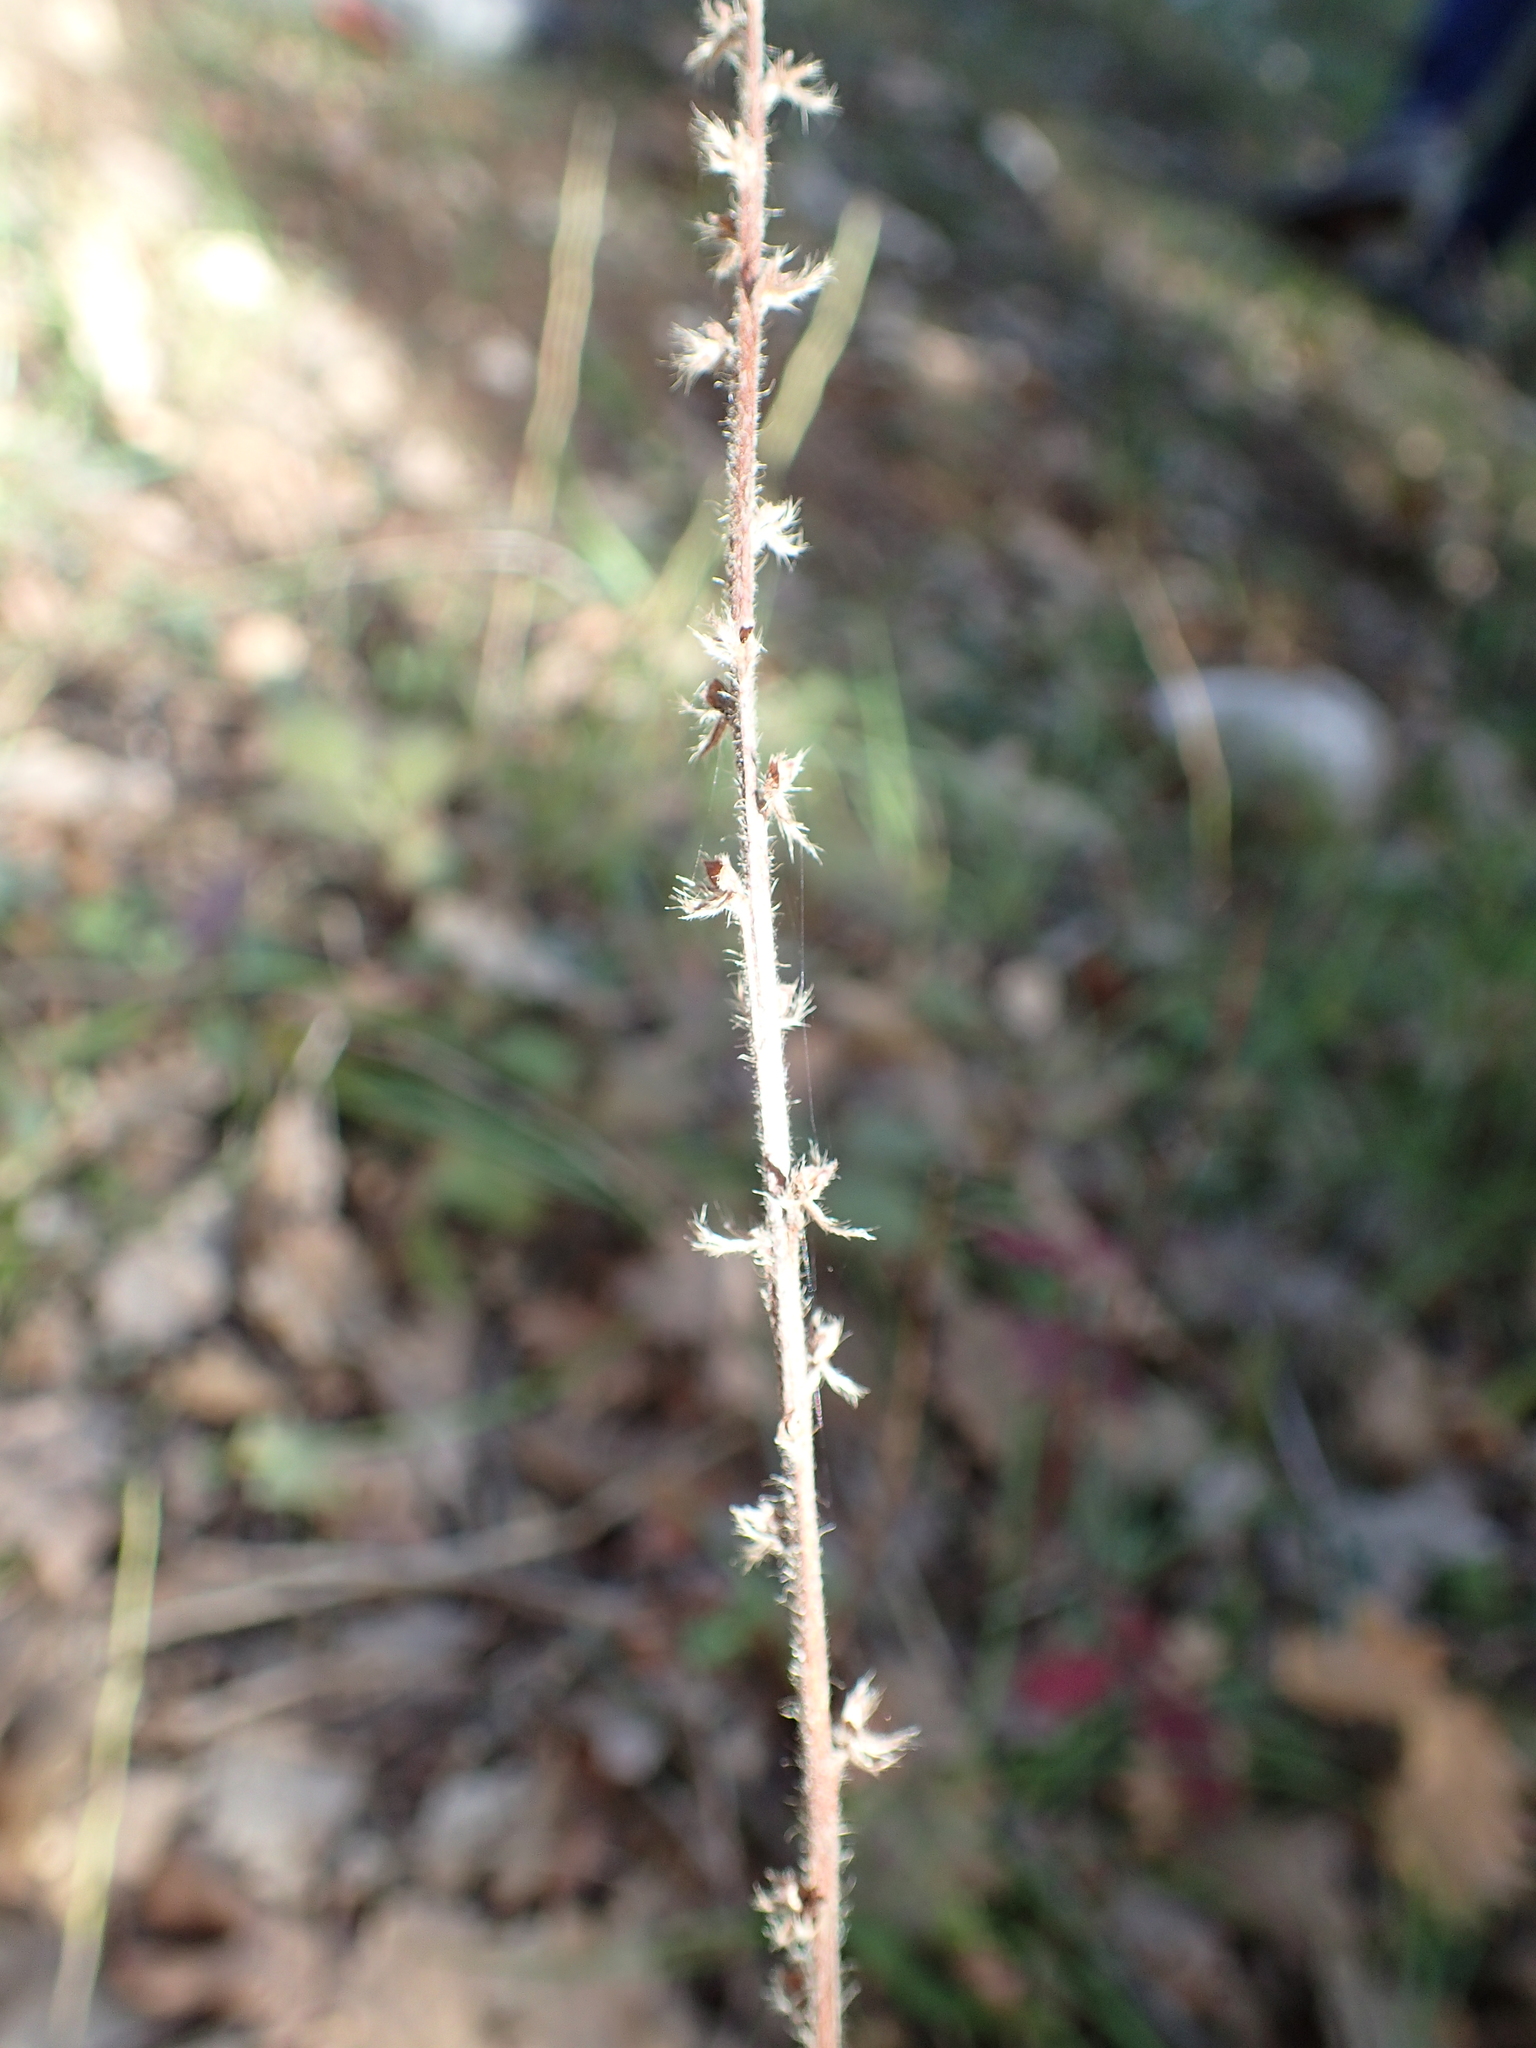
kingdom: Plantae
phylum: Tracheophyta
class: Magnoliopsida
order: Rosales
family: Rosaceae
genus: Agrimonia
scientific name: Agrimonia eupatoria
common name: Agrimony
